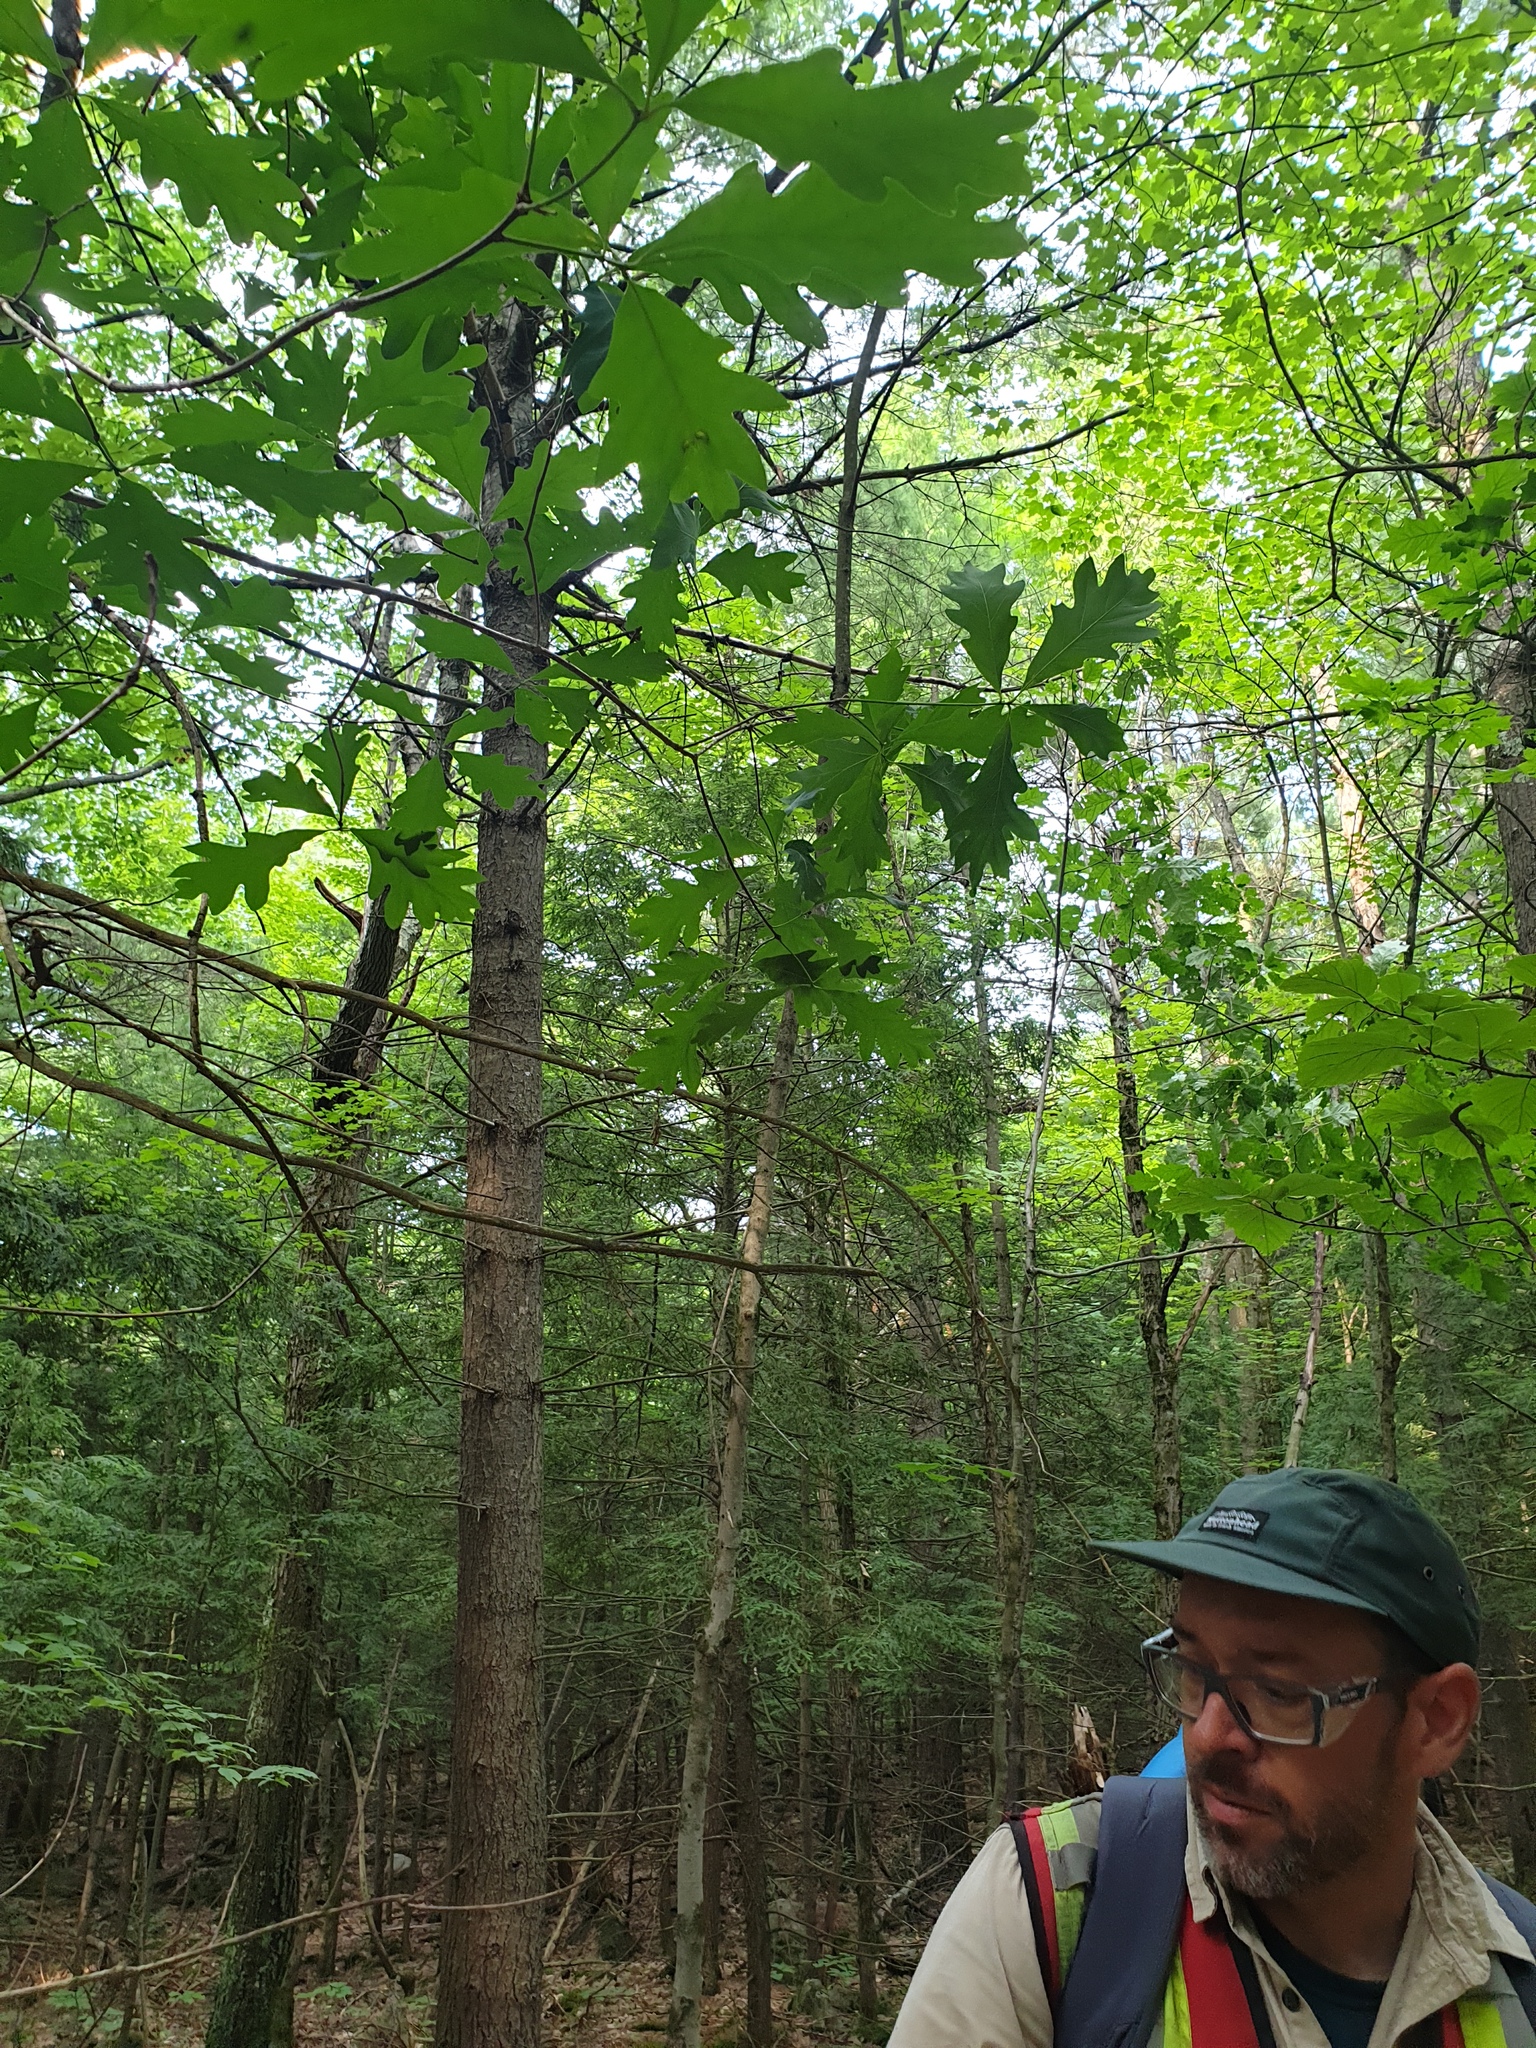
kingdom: Plantae
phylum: Tracheophyta
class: Magnoliopsida
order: Fagales
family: Fagaceae
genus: Quercus
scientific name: Quercus alba
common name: White oak
